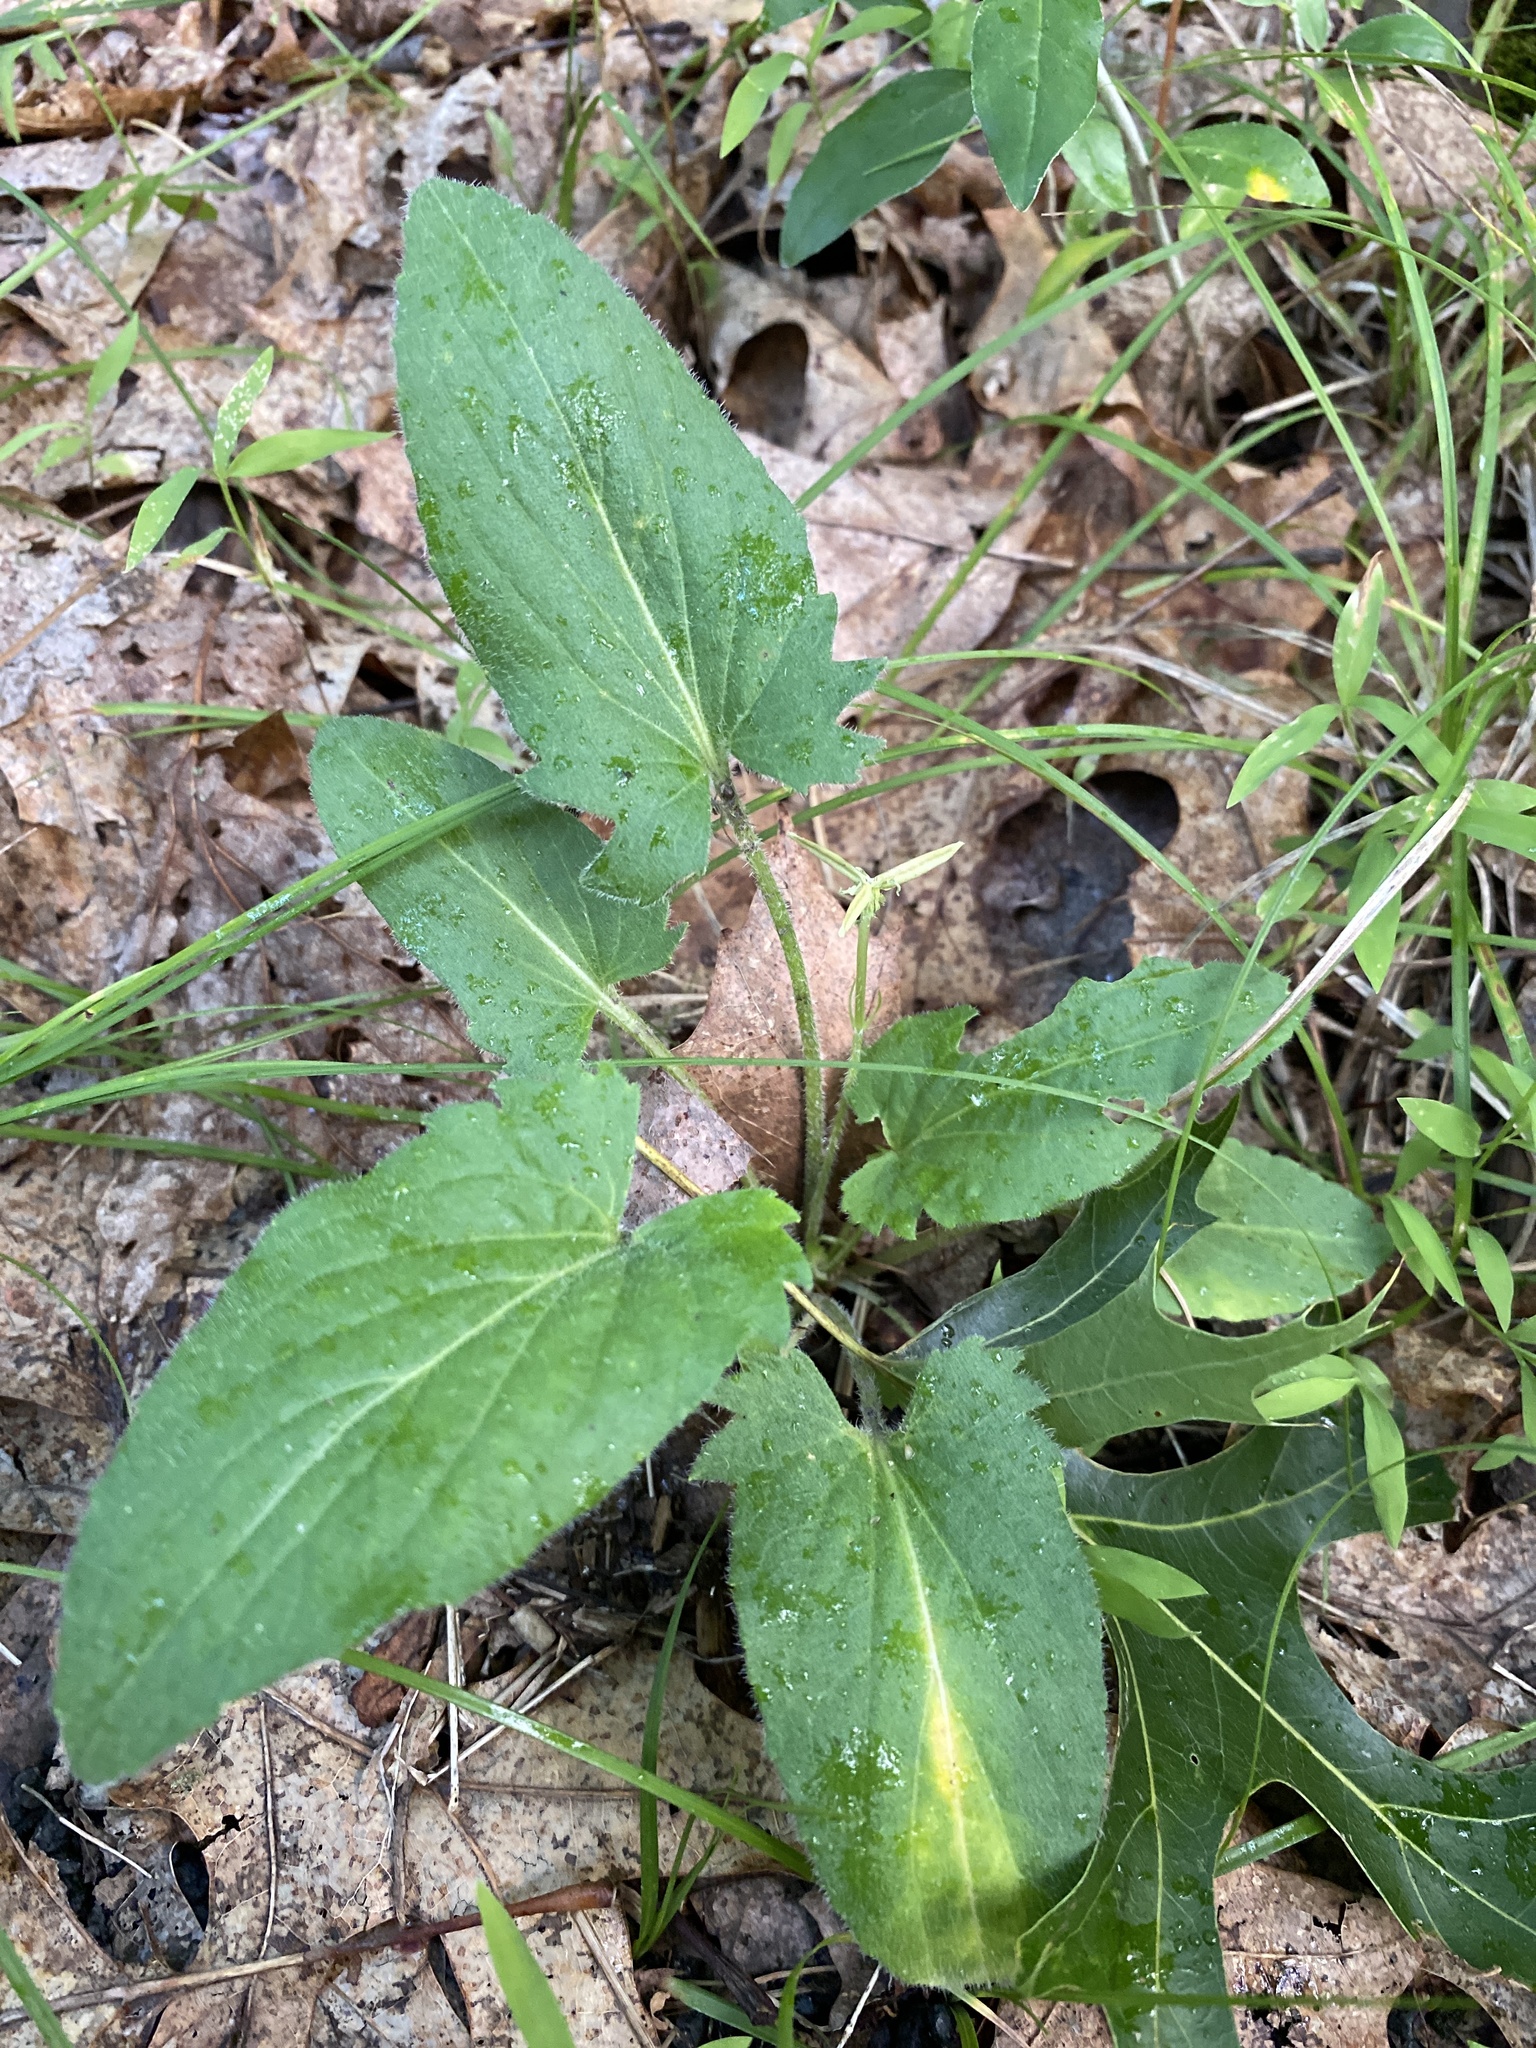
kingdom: Plantae
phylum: Tracheophyta
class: Magnoliopsida
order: Malpighiales
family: Violaceae
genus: Viola
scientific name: Viola sagittata
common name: Arrowhead violet
